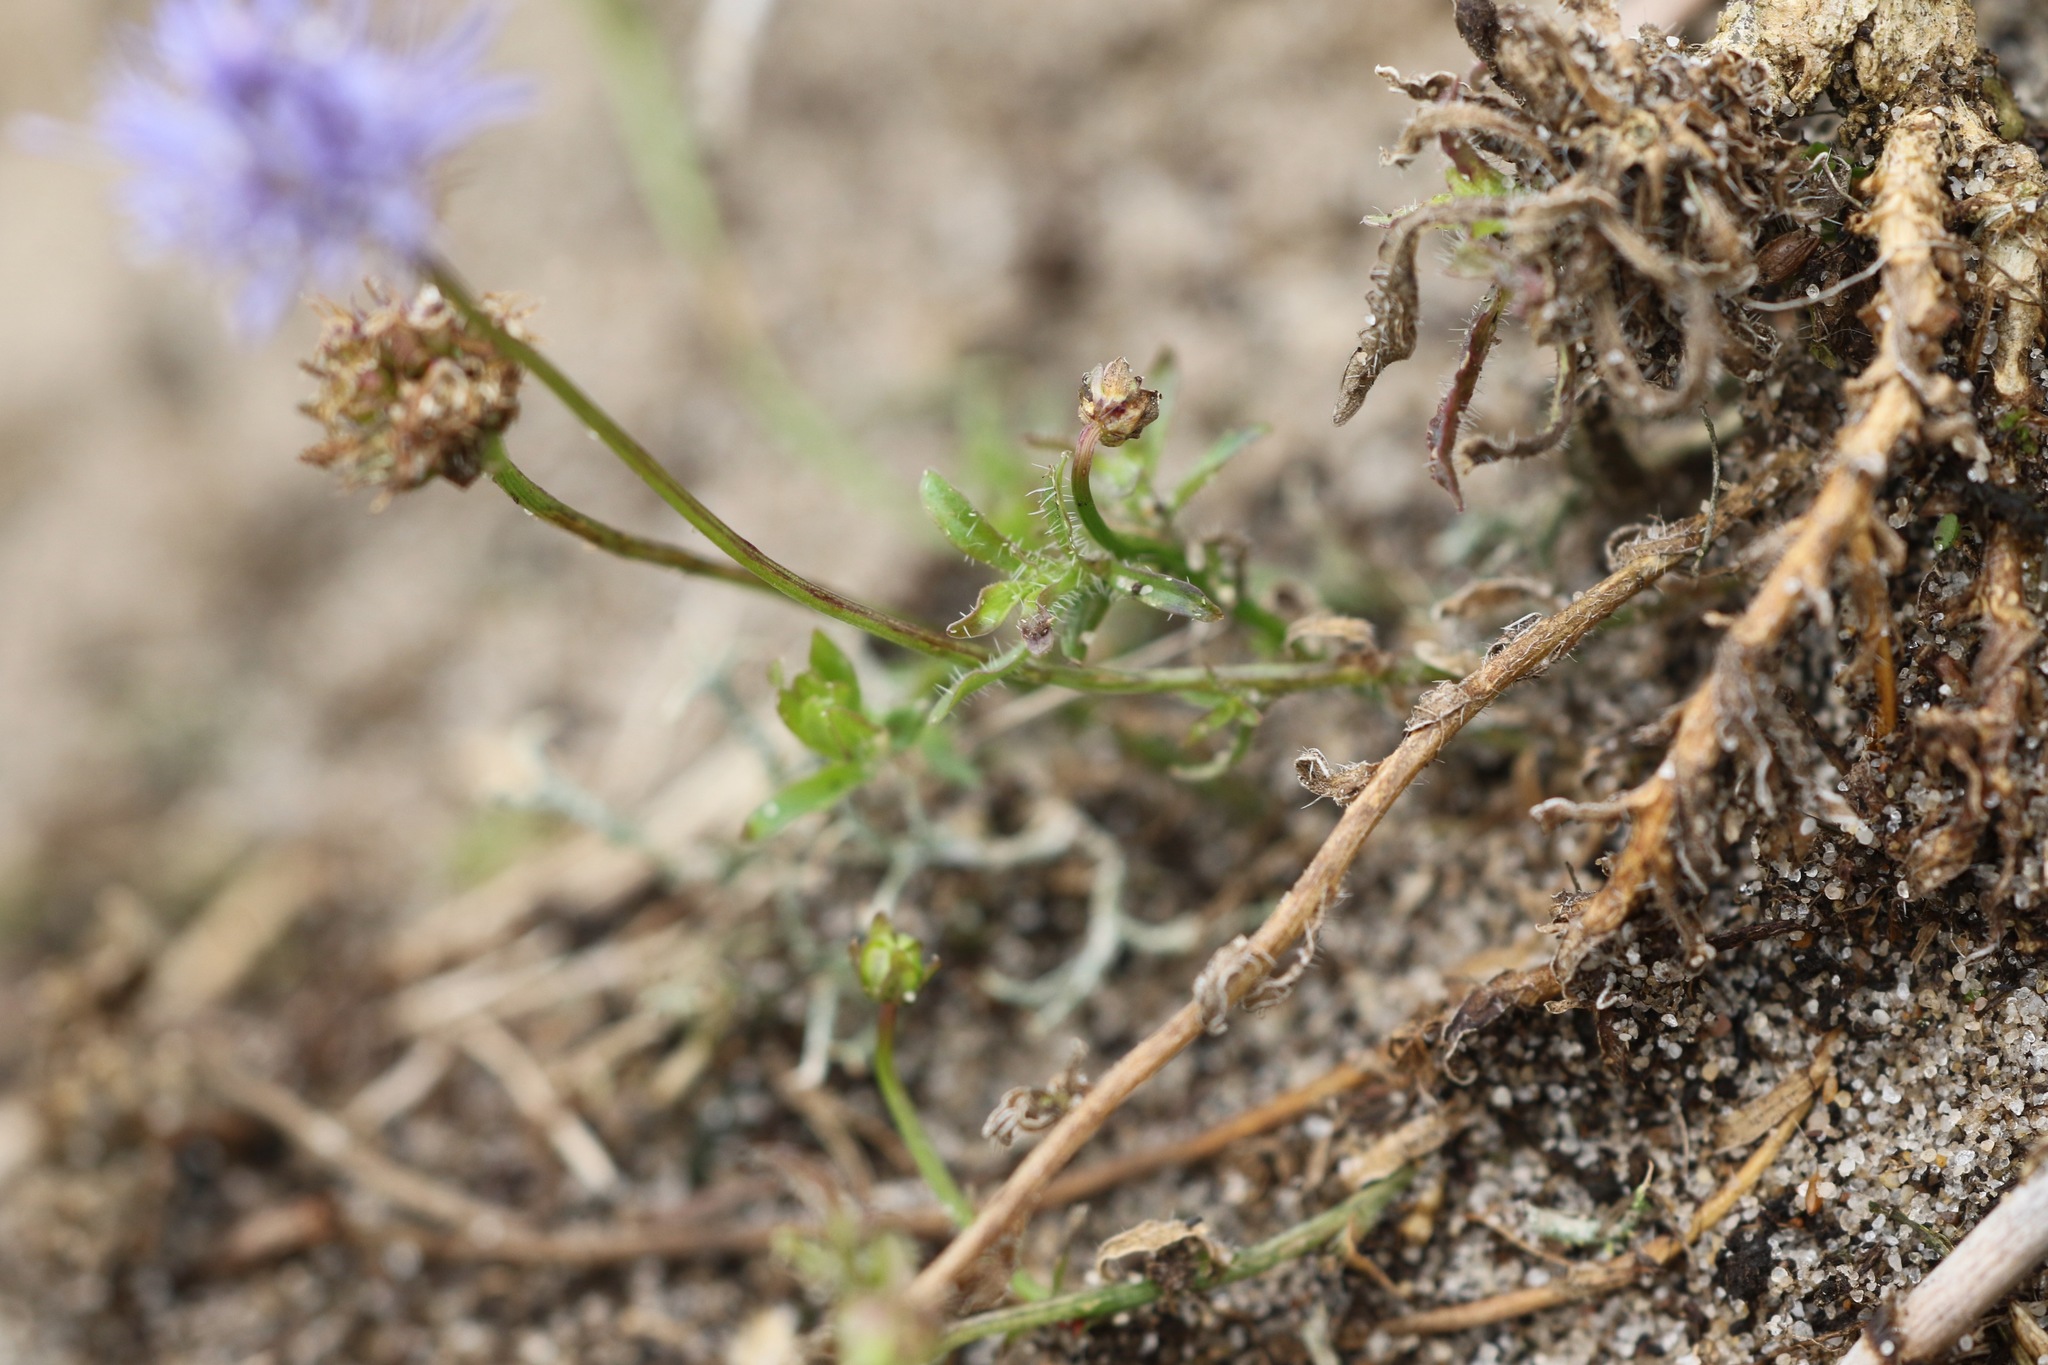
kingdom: Plantae
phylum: Tracheophyta
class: Magnoliopsida
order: Asterales
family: Campanulaceae
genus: Jasione
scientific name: Jasione montana
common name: Sheep's-bit
